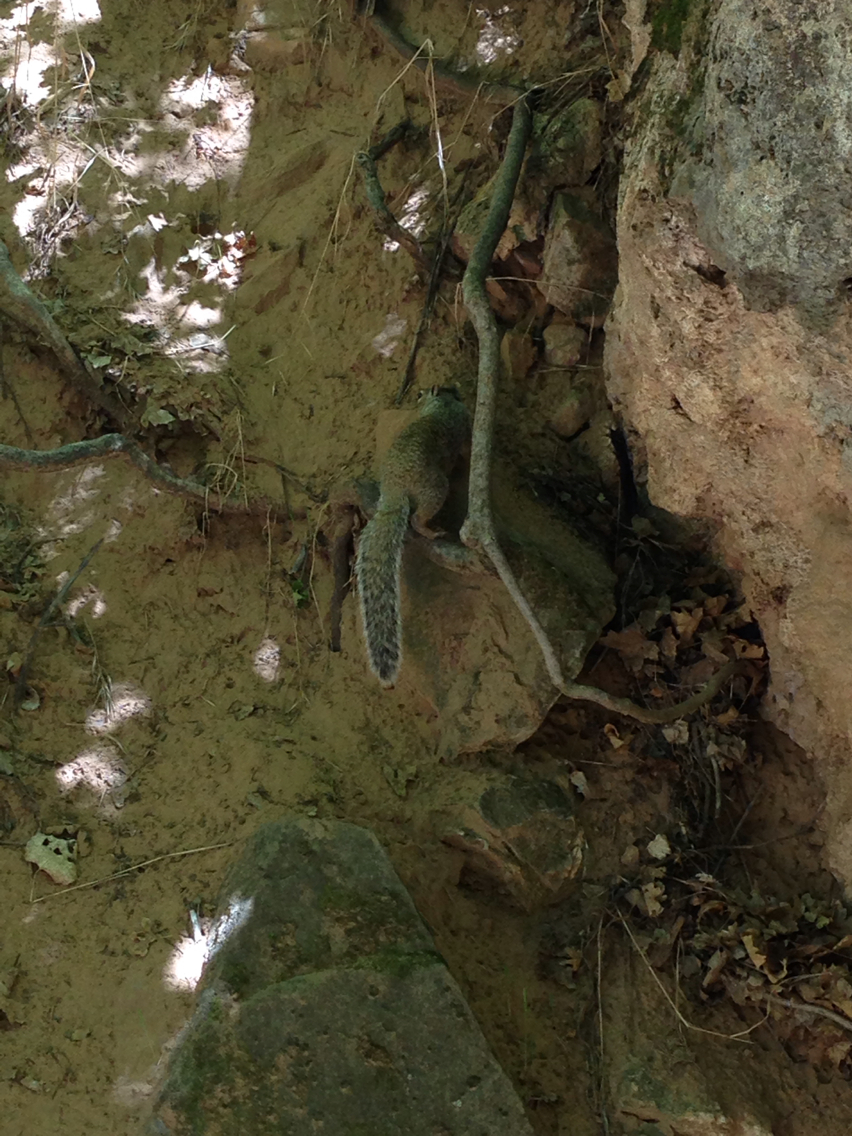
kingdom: Animalia
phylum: Chordata
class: Mammalia
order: Rodentia
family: Sciuridae
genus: Otospermophilus
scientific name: Otospermophilus variegatus
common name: Rock squirrel
